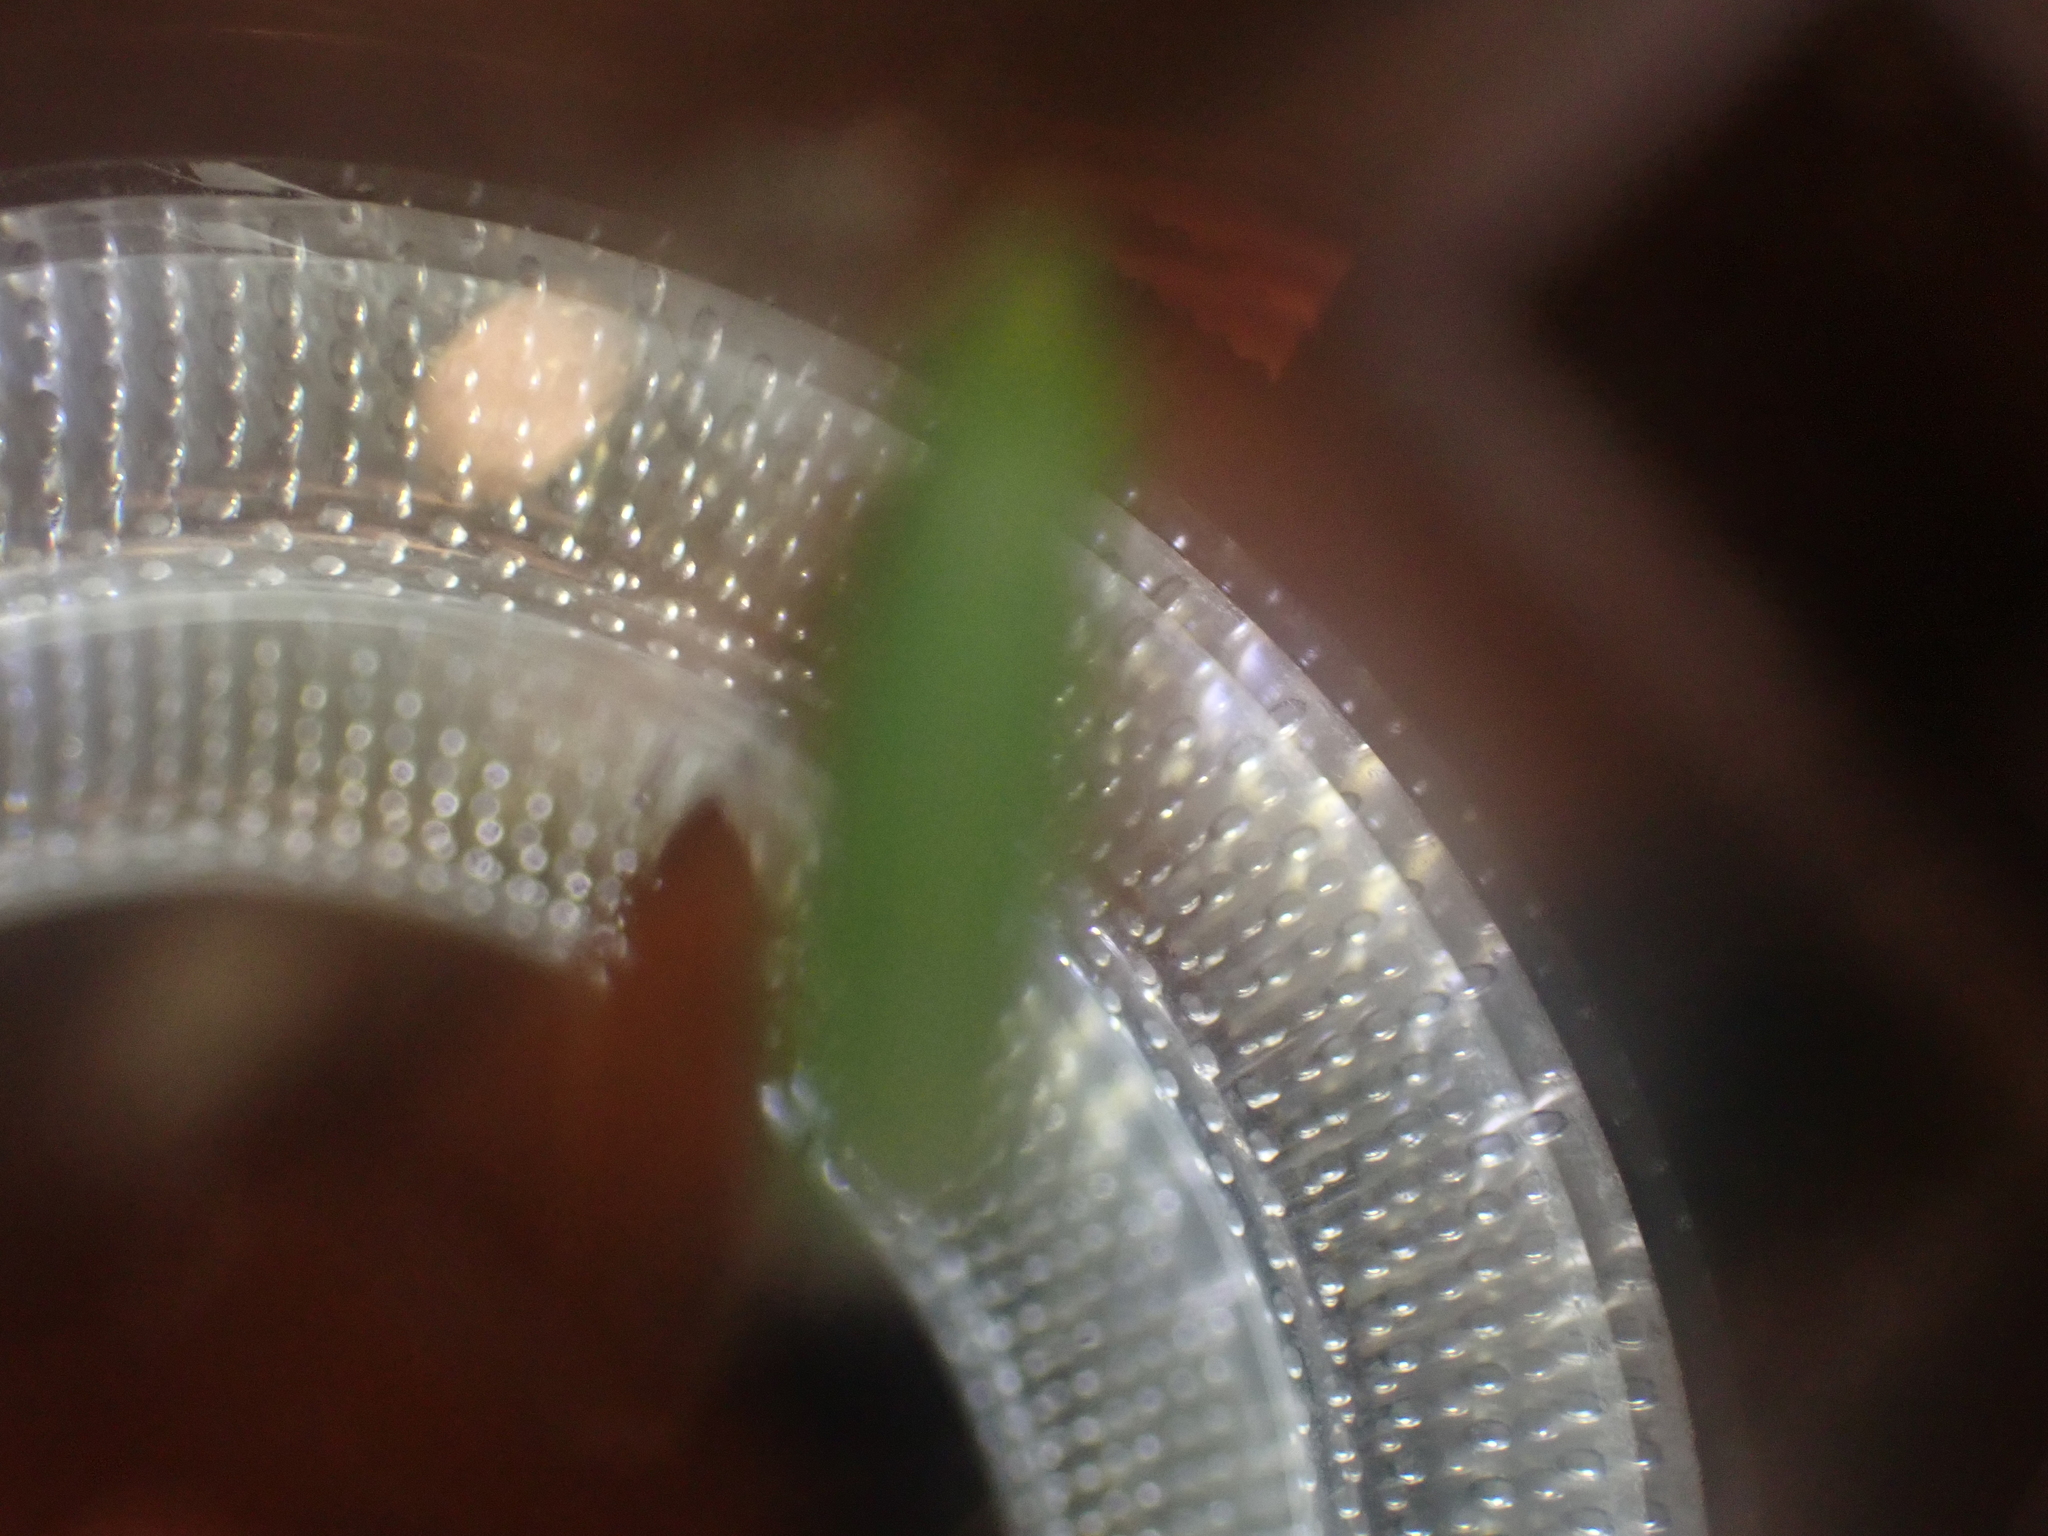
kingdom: Animalia
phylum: Arthropoda
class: Insecta
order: Hemiptera
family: Cicadellidae
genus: Draeculacephala
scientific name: Draeculacephala robinsoni
